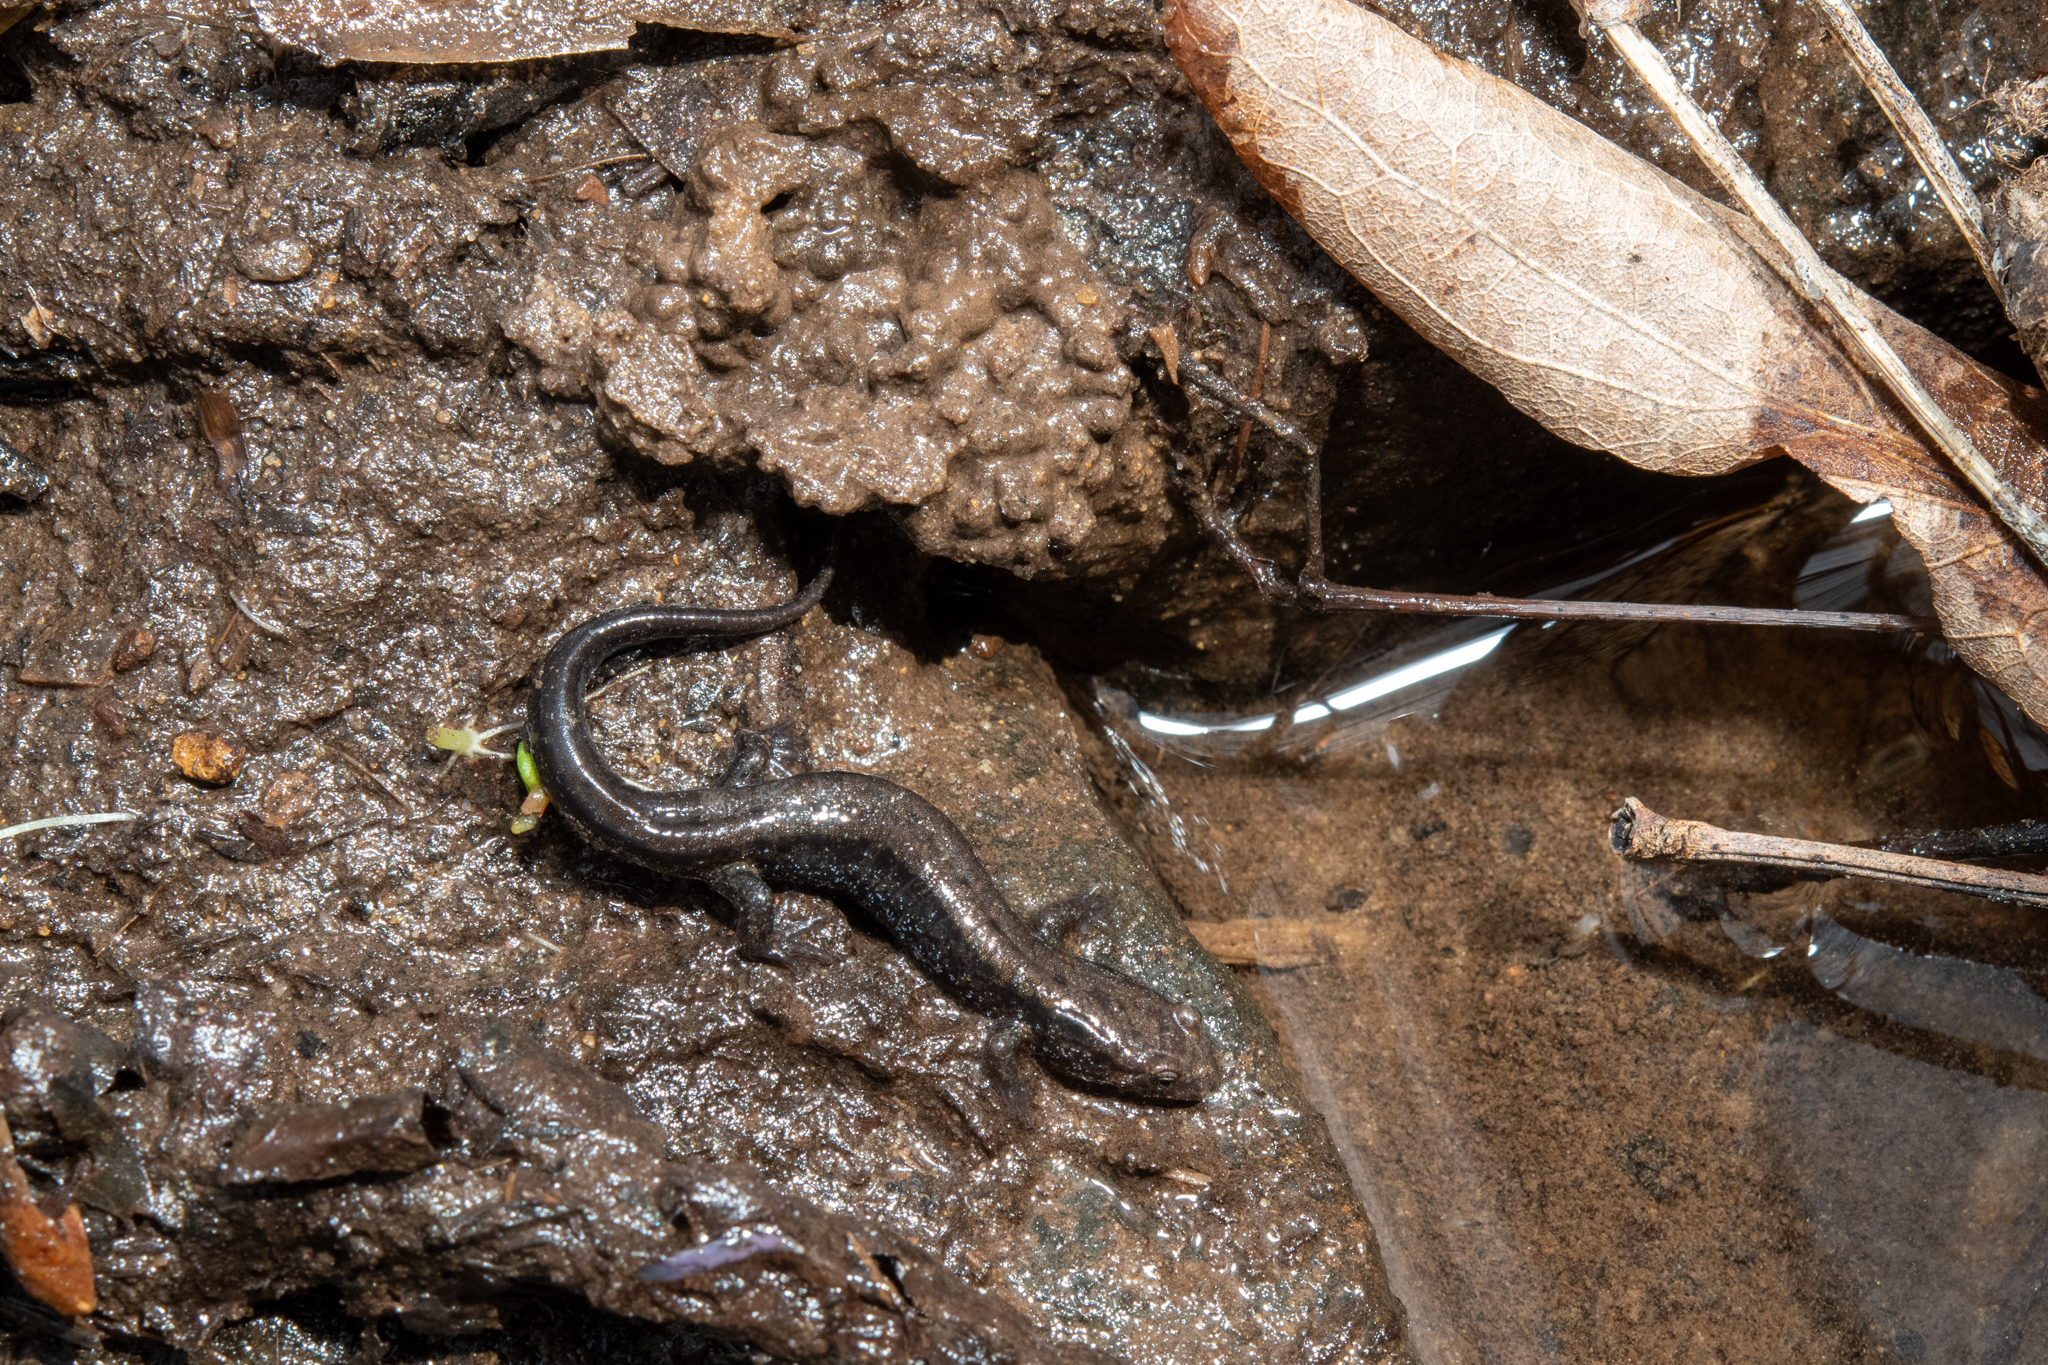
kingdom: Animalia
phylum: Chordata
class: Amphibia
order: Caudata
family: Plethodontidae
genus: Desmognathus
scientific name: Desmognathus ochrophaeus
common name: Allegheny mountain dusky salamander
